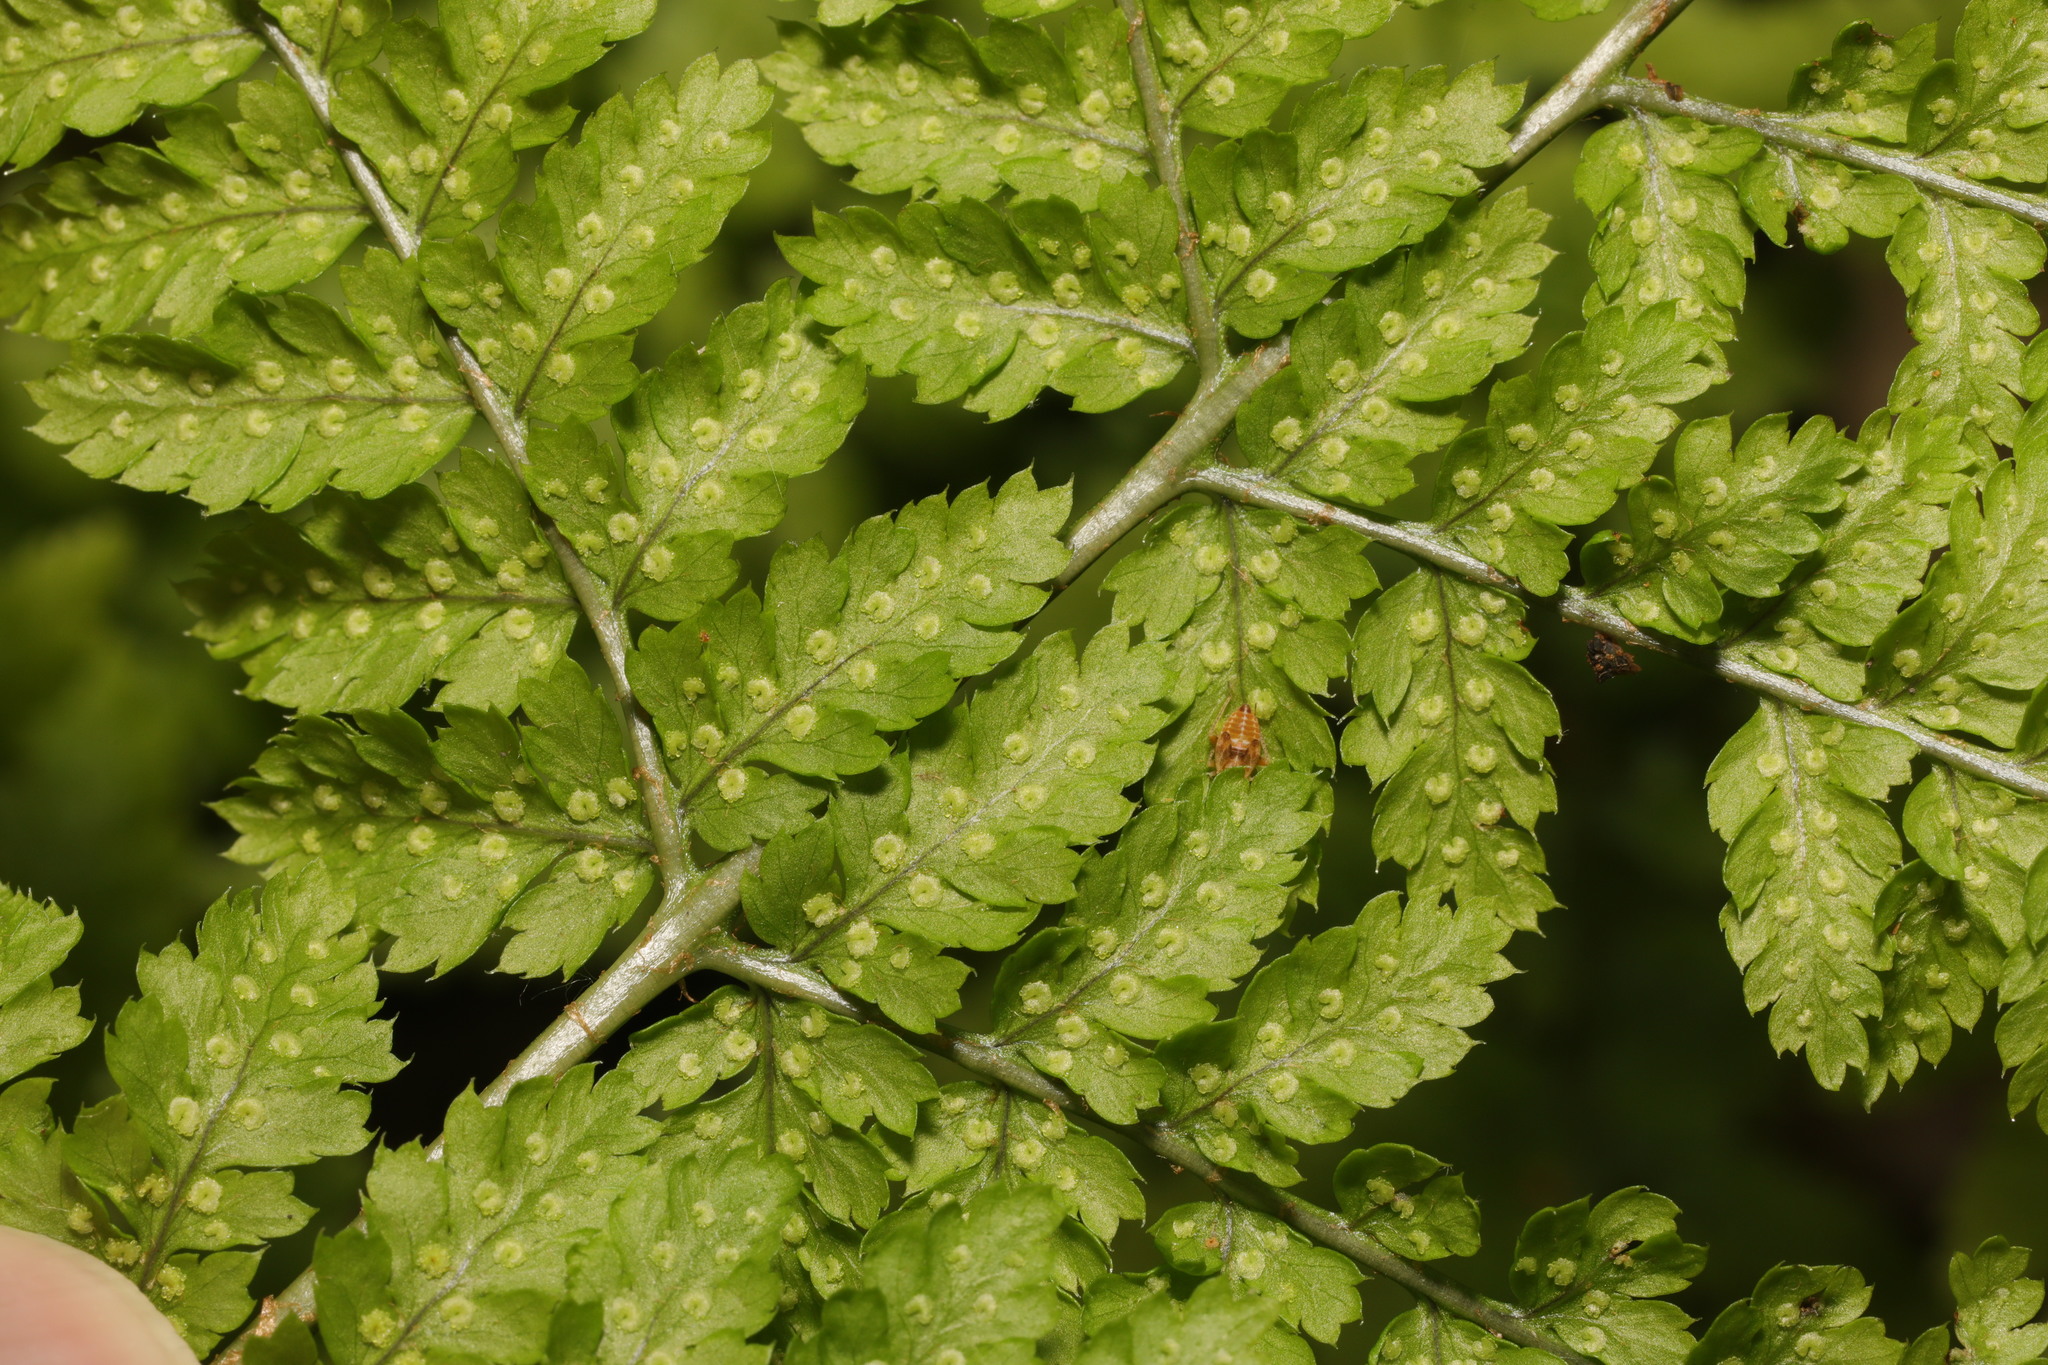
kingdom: Plantae
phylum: Tracheophyta
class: Polypodiopsida
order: Polypodiales
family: Dryopteridaceae
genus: Dryopteris
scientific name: Dryopteris dilatata
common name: Broad buckler-fern
